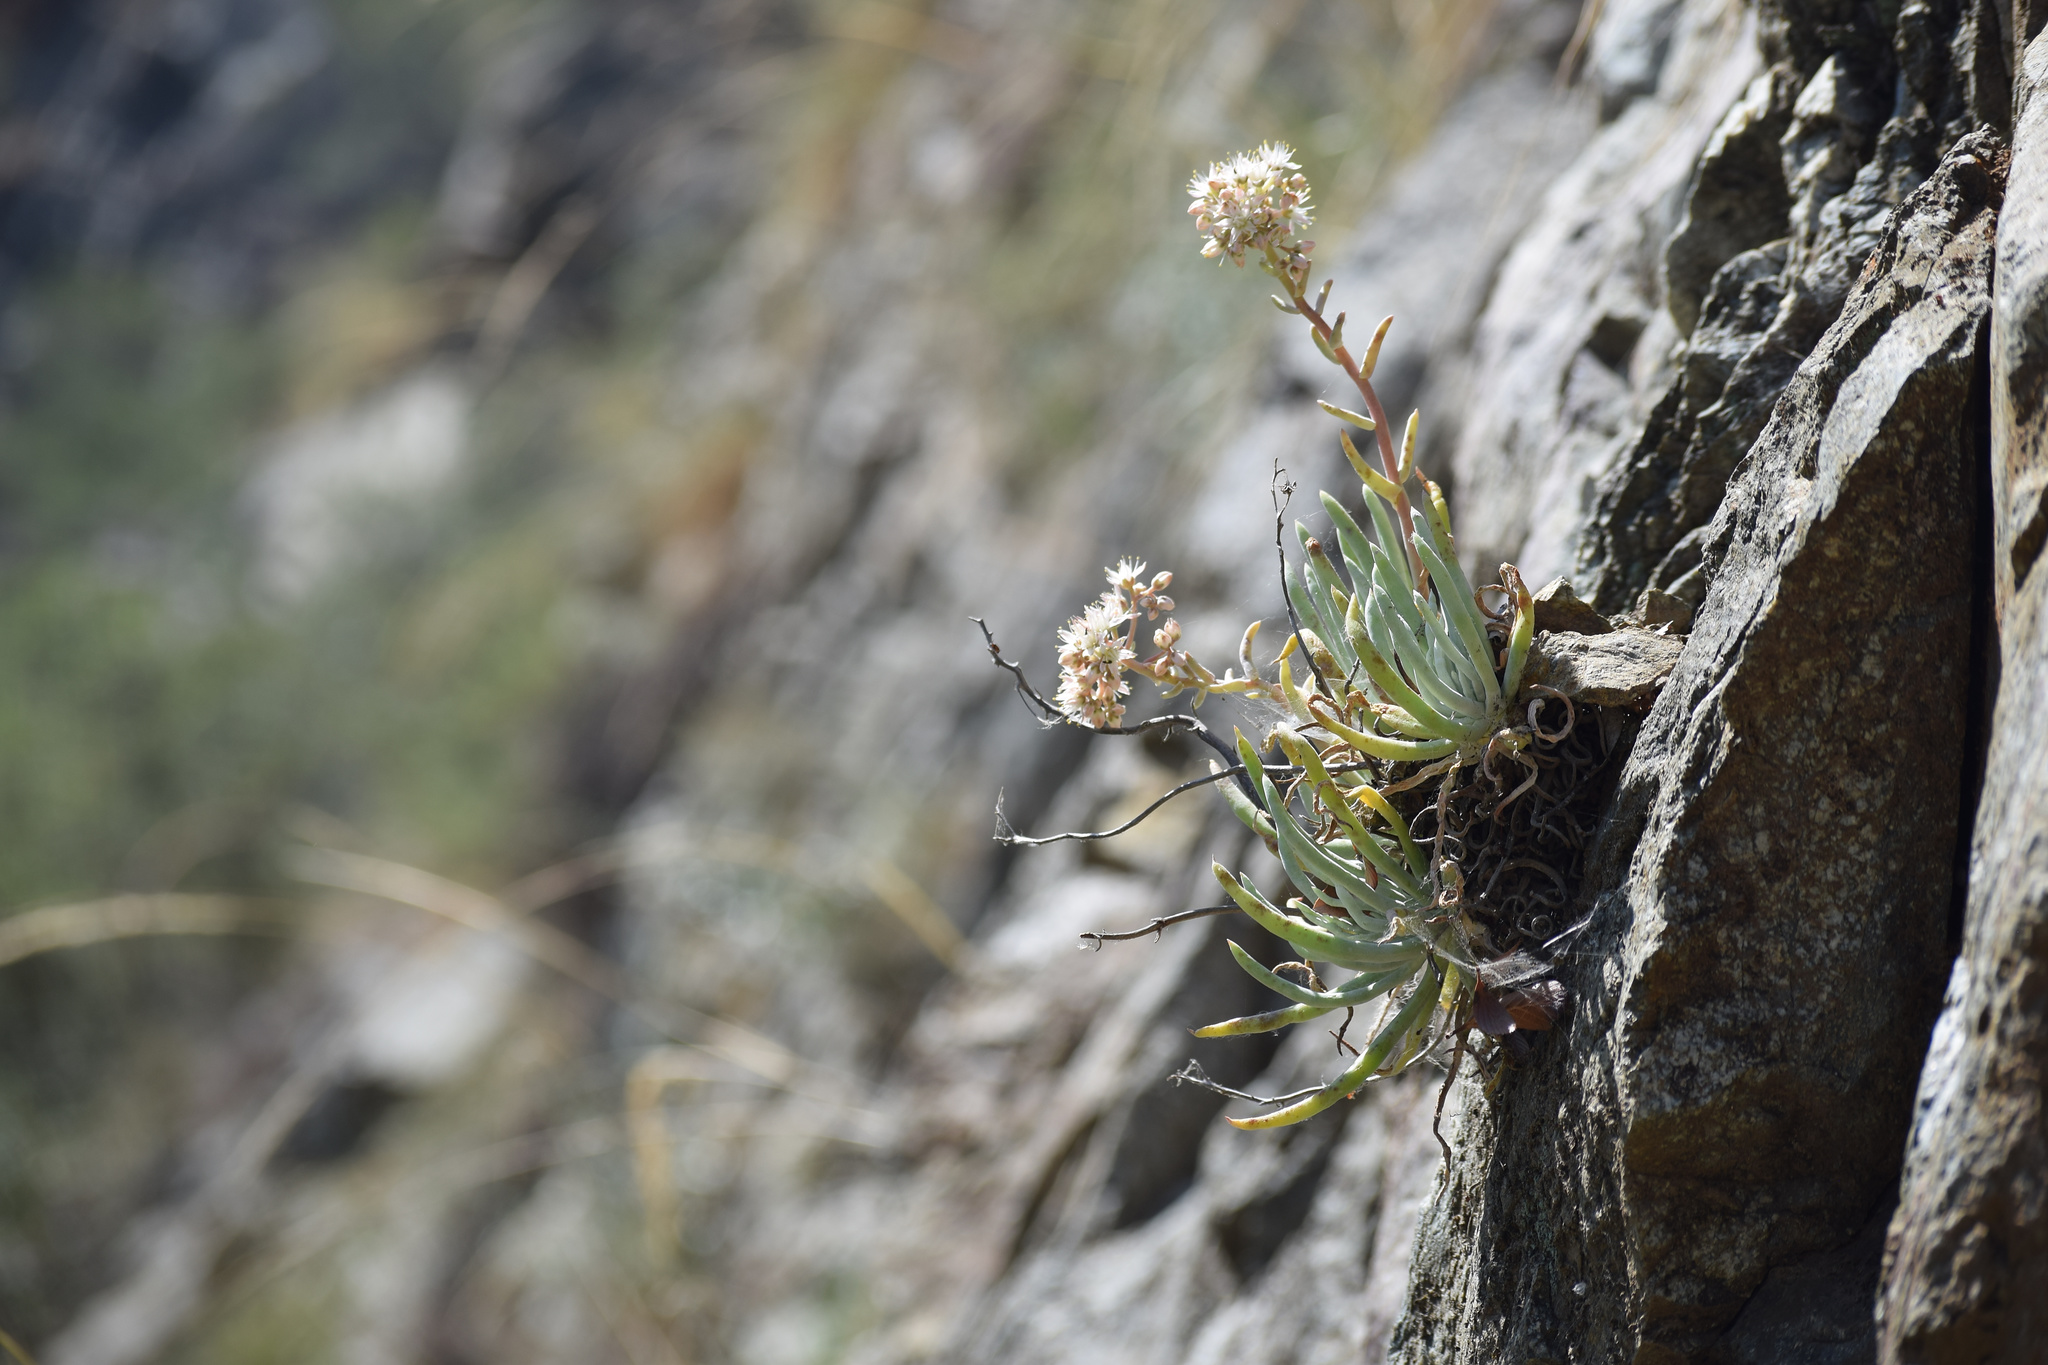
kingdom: Plantae
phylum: Tracheophyta
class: Magnoliopsida
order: Saxifragales
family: Crassulaceae
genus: Dudleya
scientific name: Dudleya densiflora
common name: San gabriel mountains dudleya
